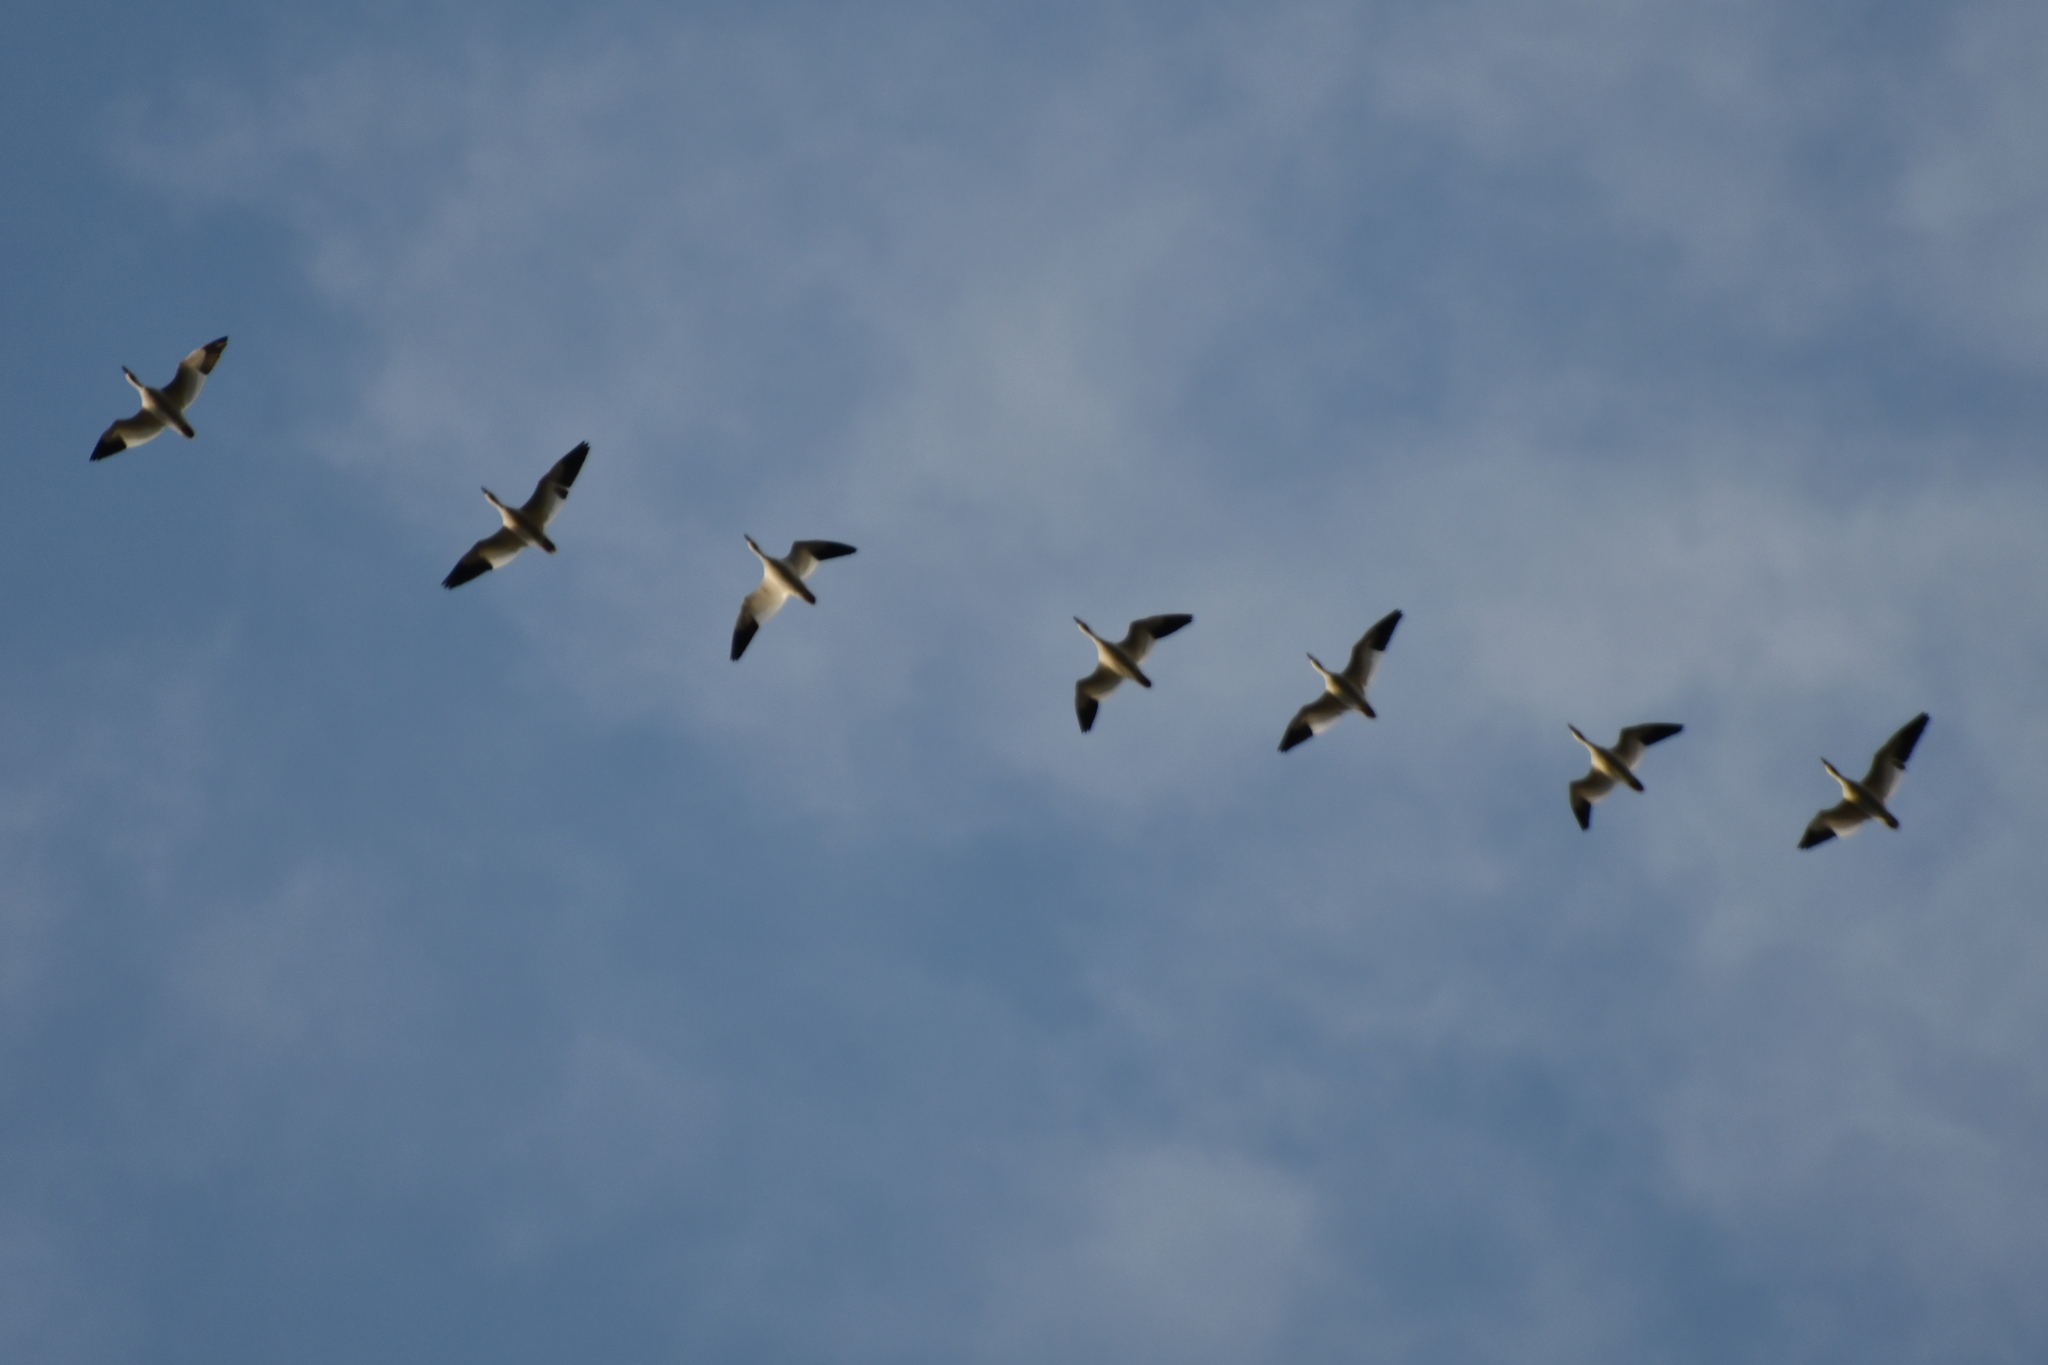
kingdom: Animalia
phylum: Chordata
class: Aves
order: Anseriformes
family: Anatidae
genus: Anser
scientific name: Anser caerulescens
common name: Snow goose
